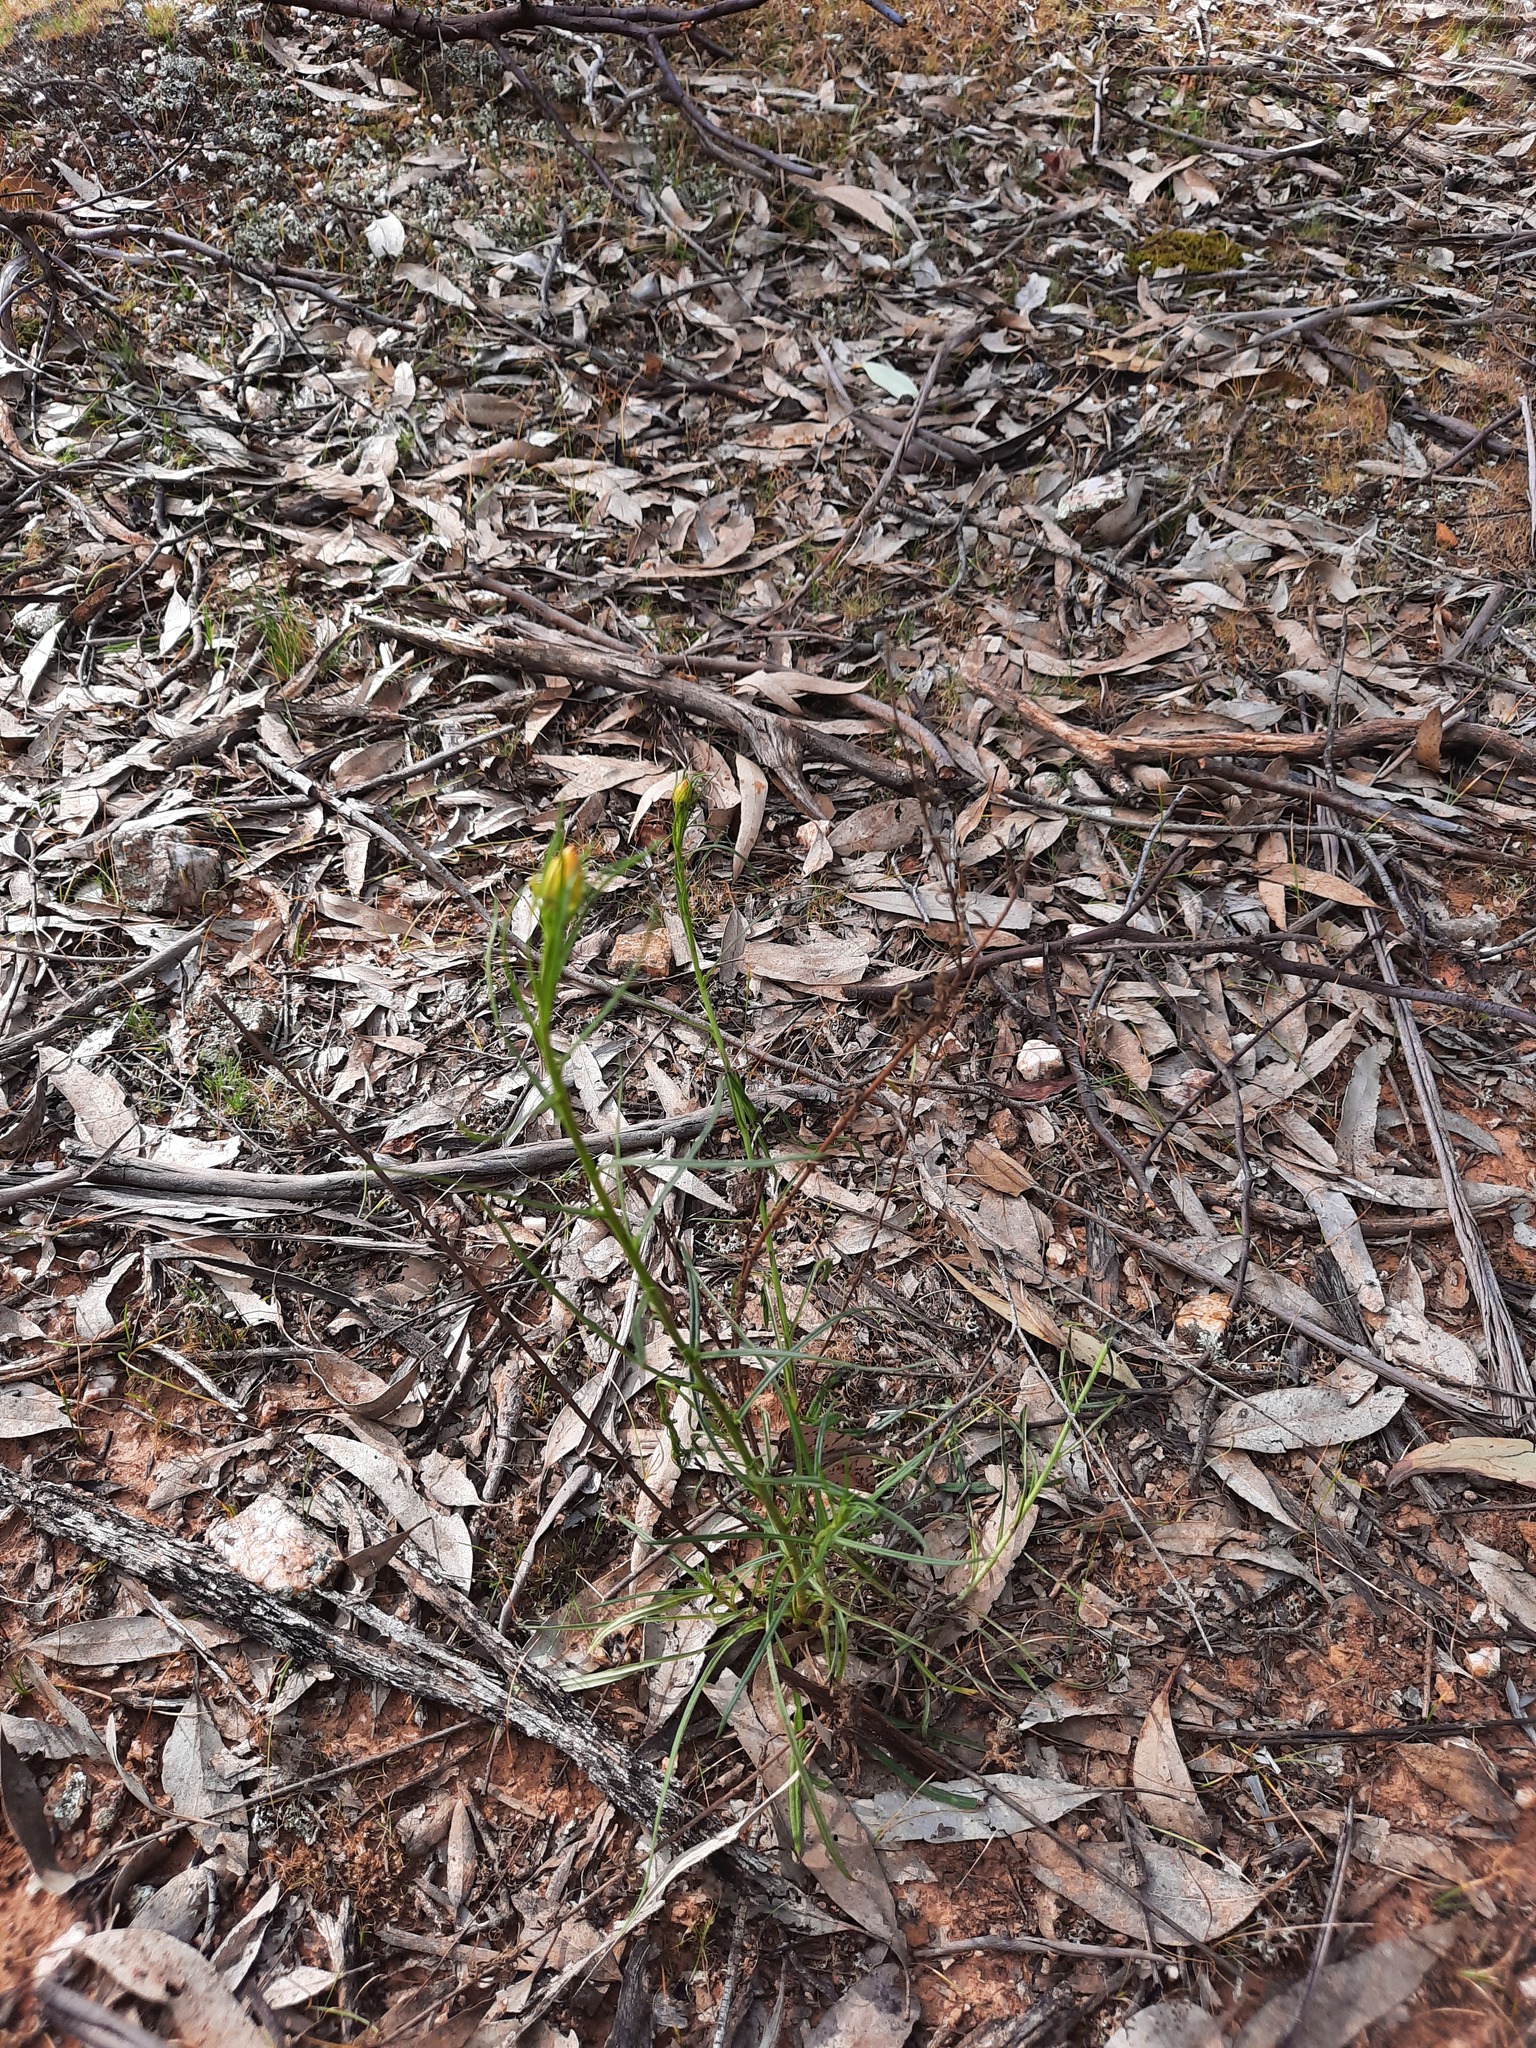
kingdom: Plantae
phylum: Tracheophyta
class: Magnoliopsida
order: Asterales
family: Asteraceae
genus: Xerochrysum
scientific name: Xerochrysum viscosum
